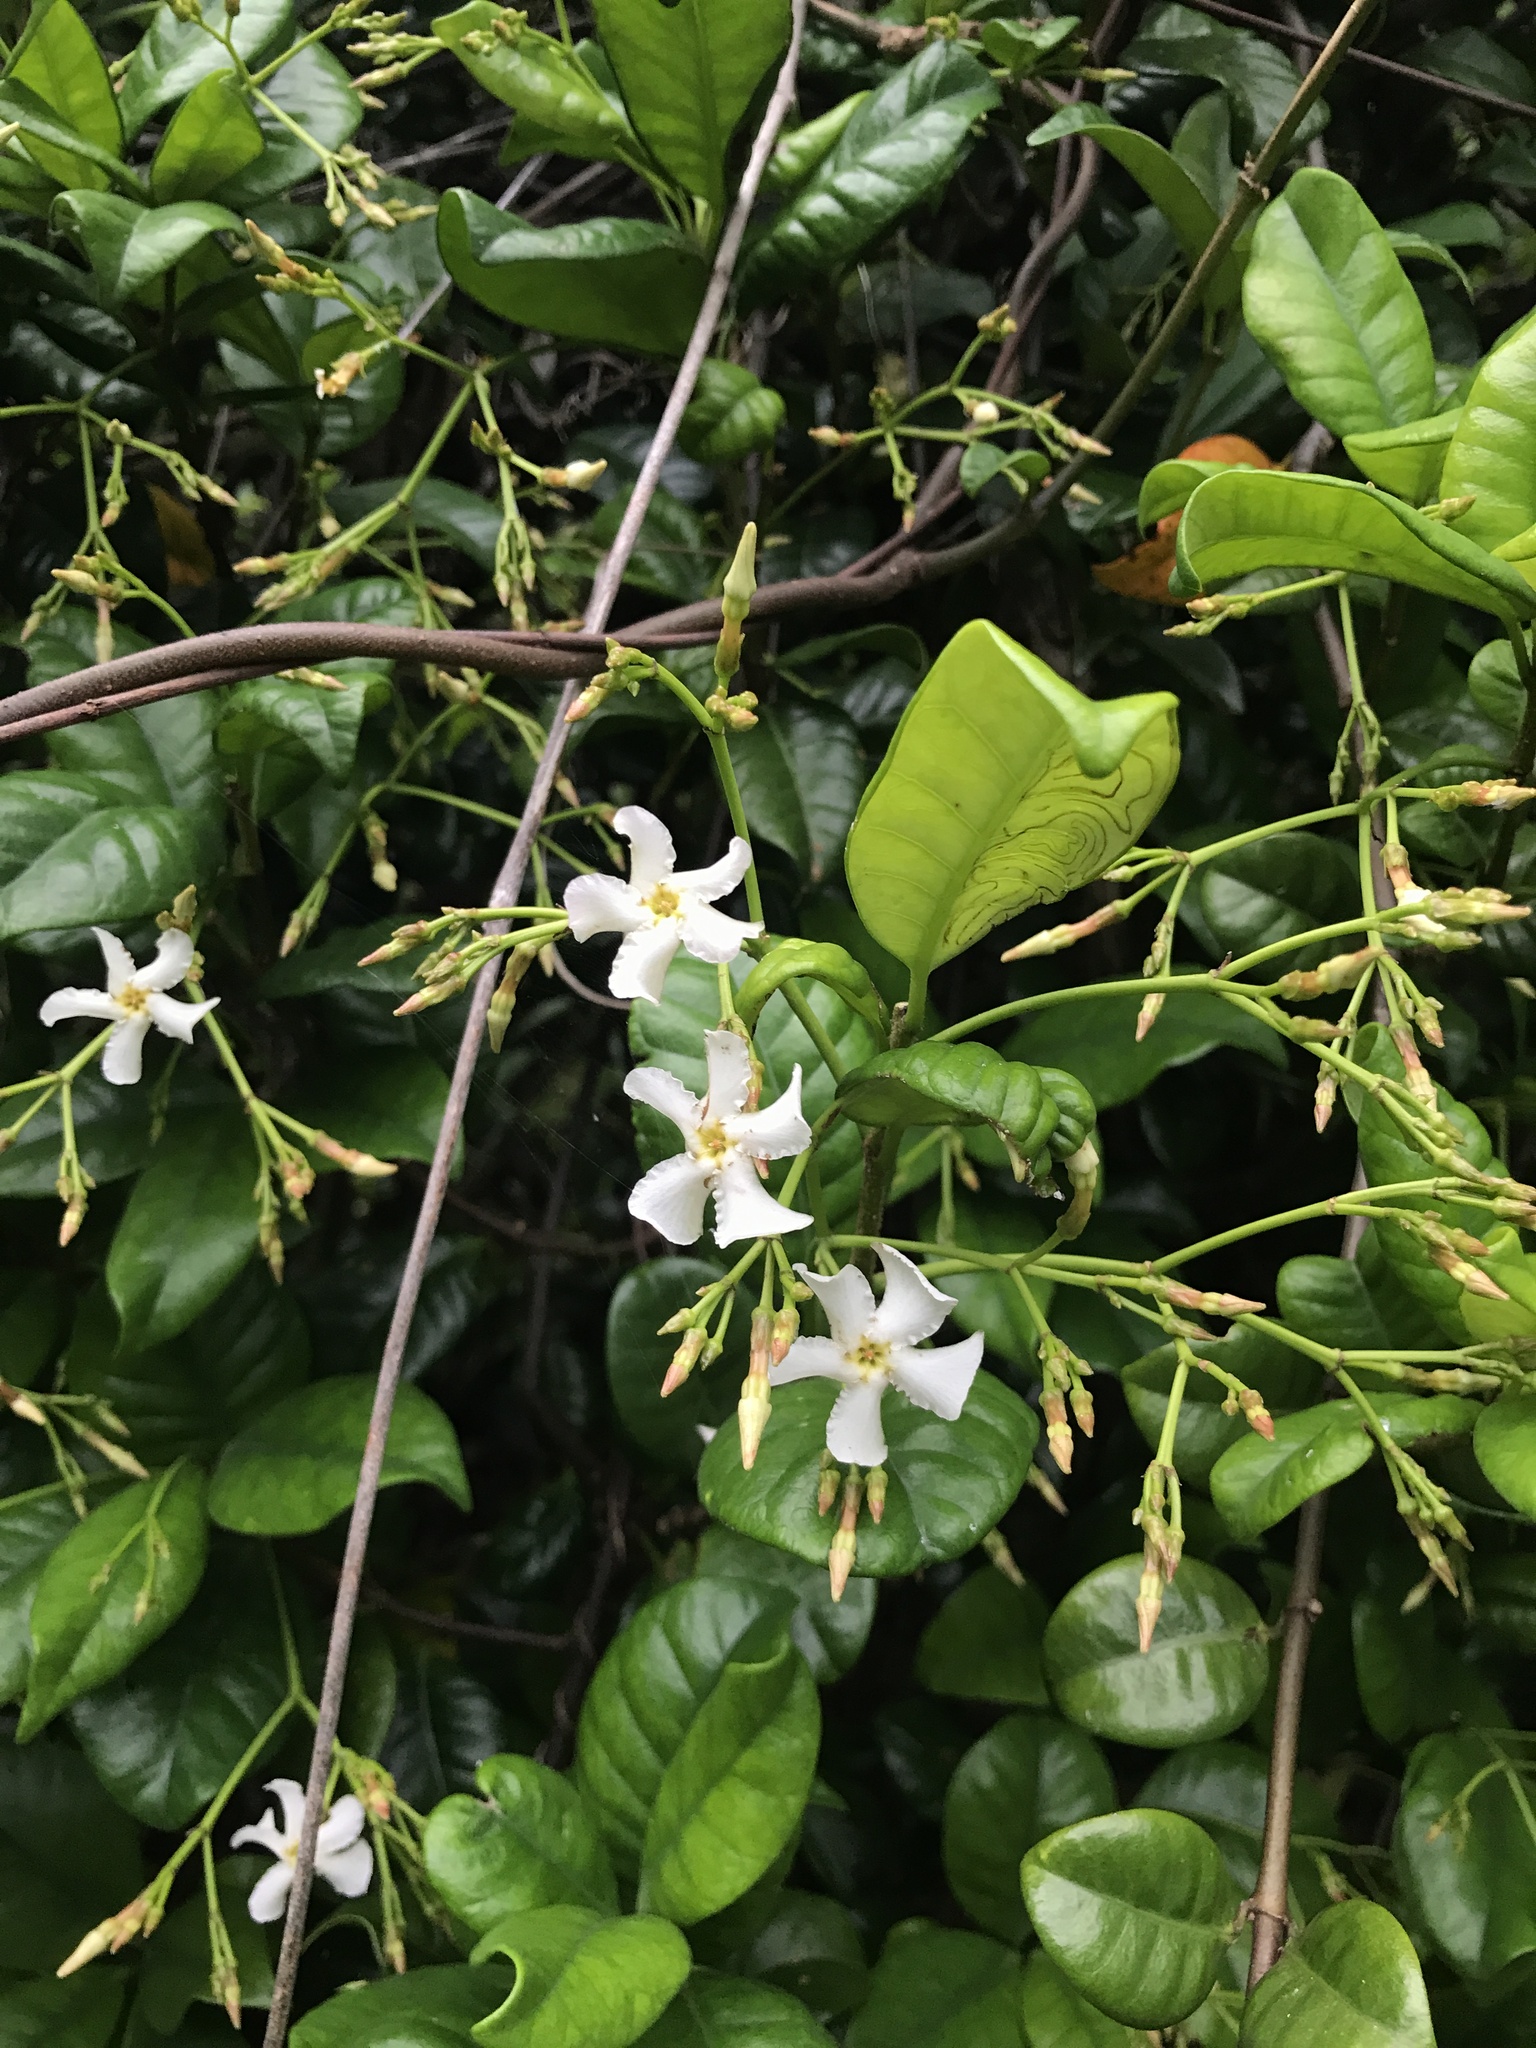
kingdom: Plantae
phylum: Tracheophyta
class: Magnoliopsida
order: Gentianales
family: Apocynaceae
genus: Trachelospermum
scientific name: Trachelospermum asiaticum
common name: Asiatic jasmine
